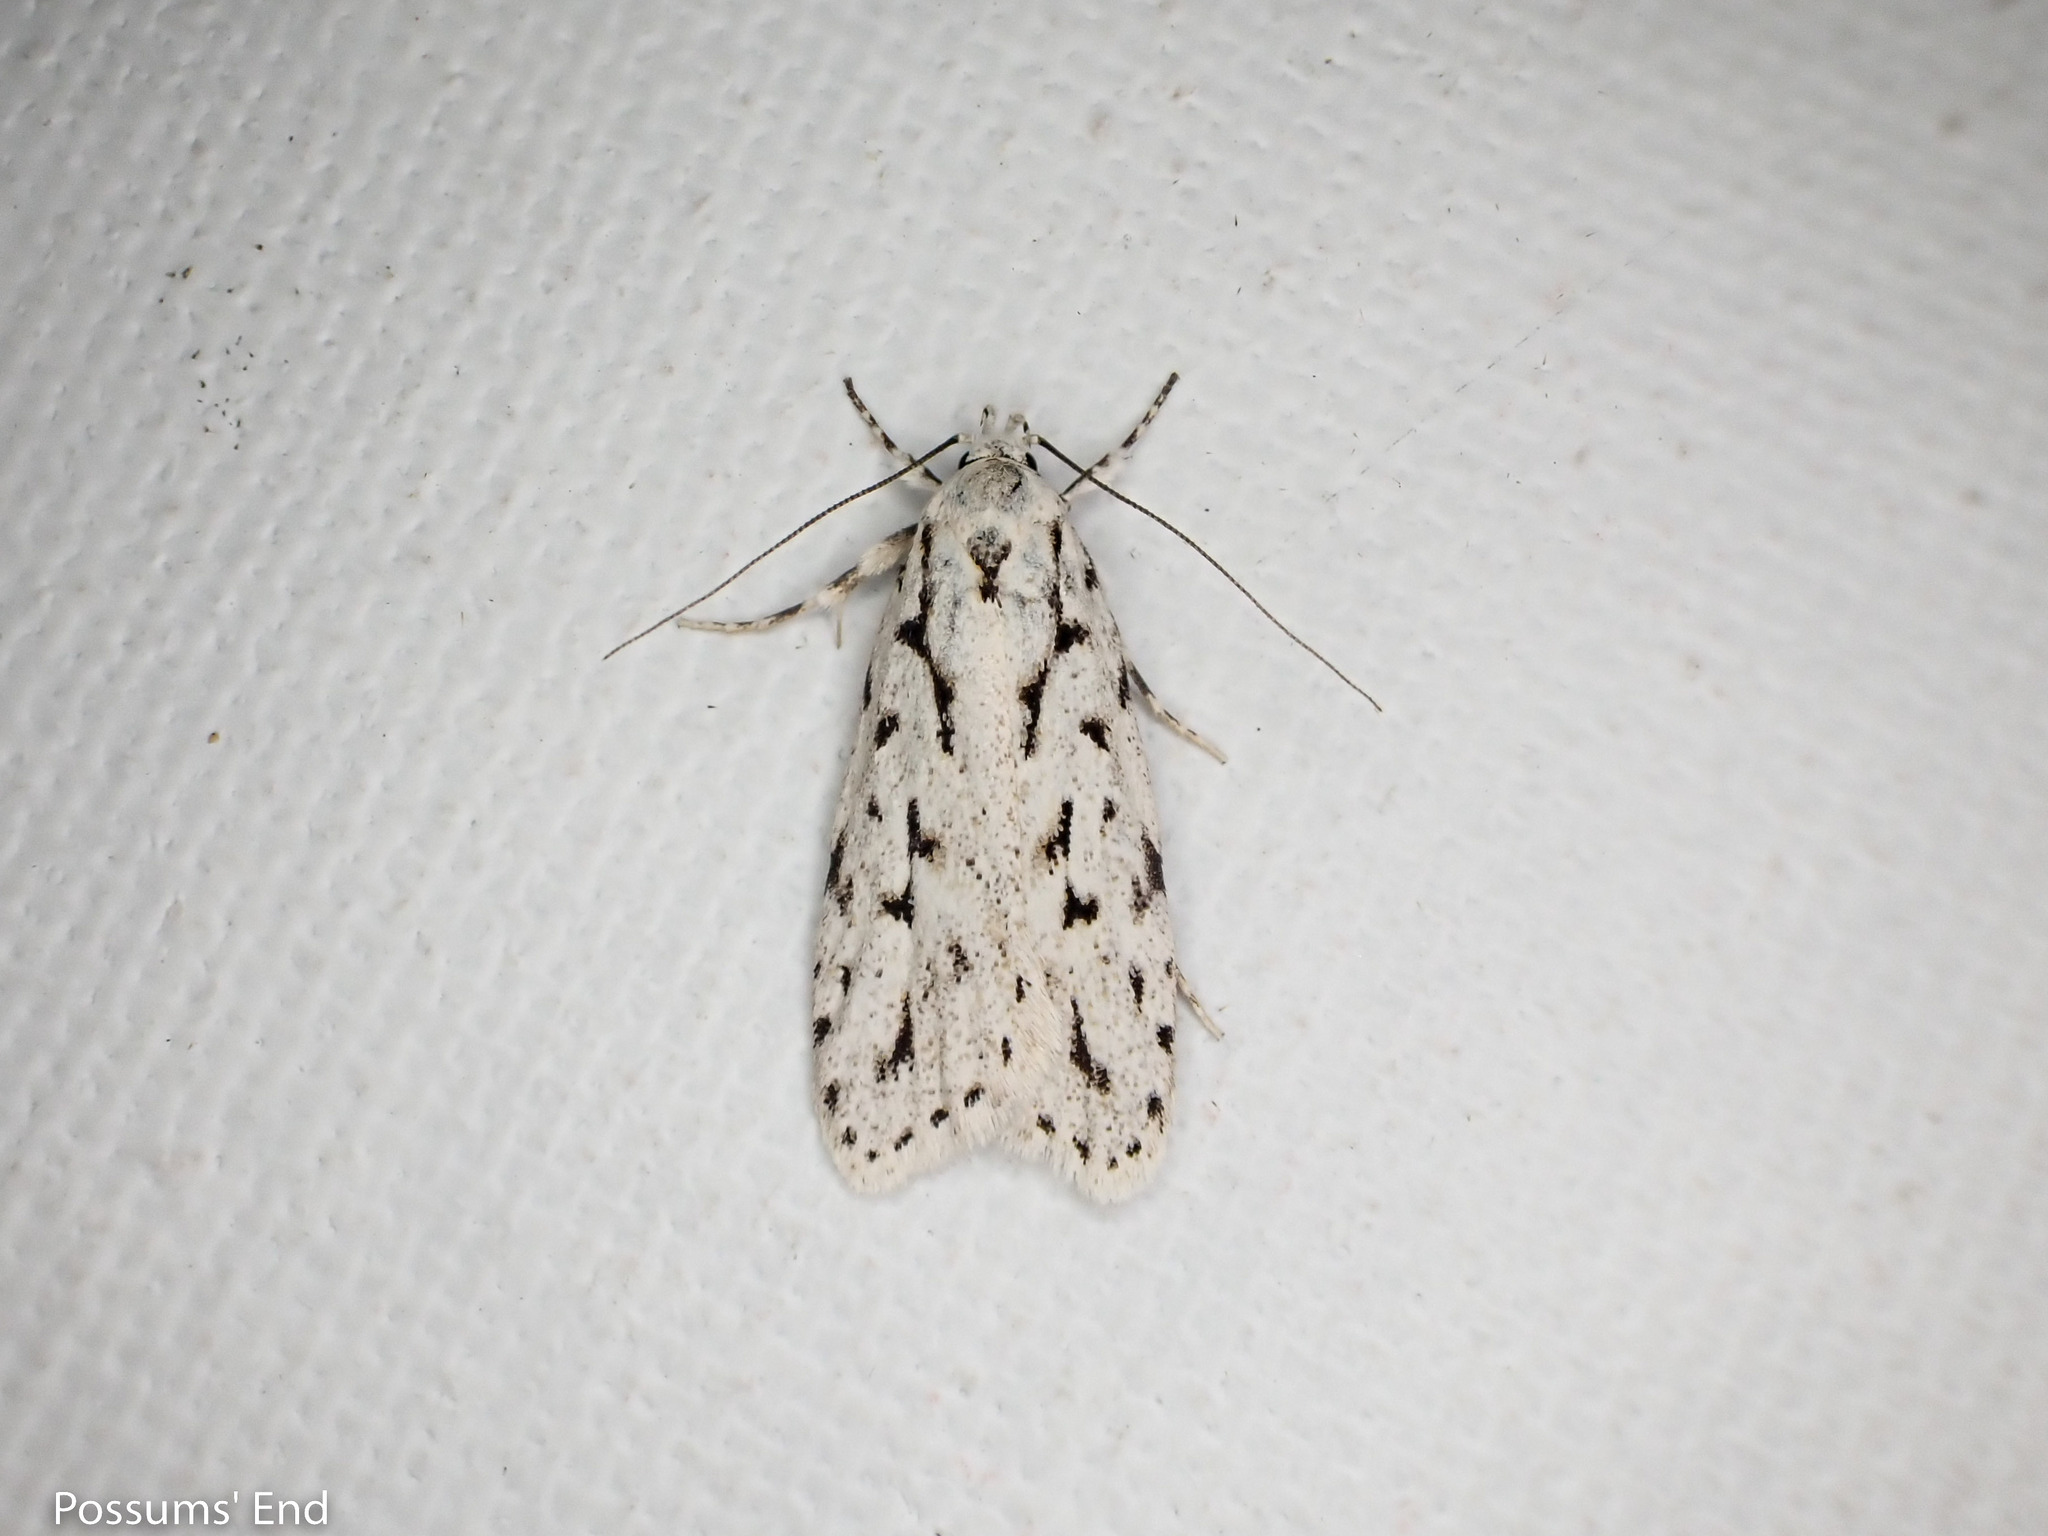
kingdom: Animalia
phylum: Arthropoda
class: Insecta
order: Lepidoptera
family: Oecophoridae
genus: Izatha
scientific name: Izatha heroica
